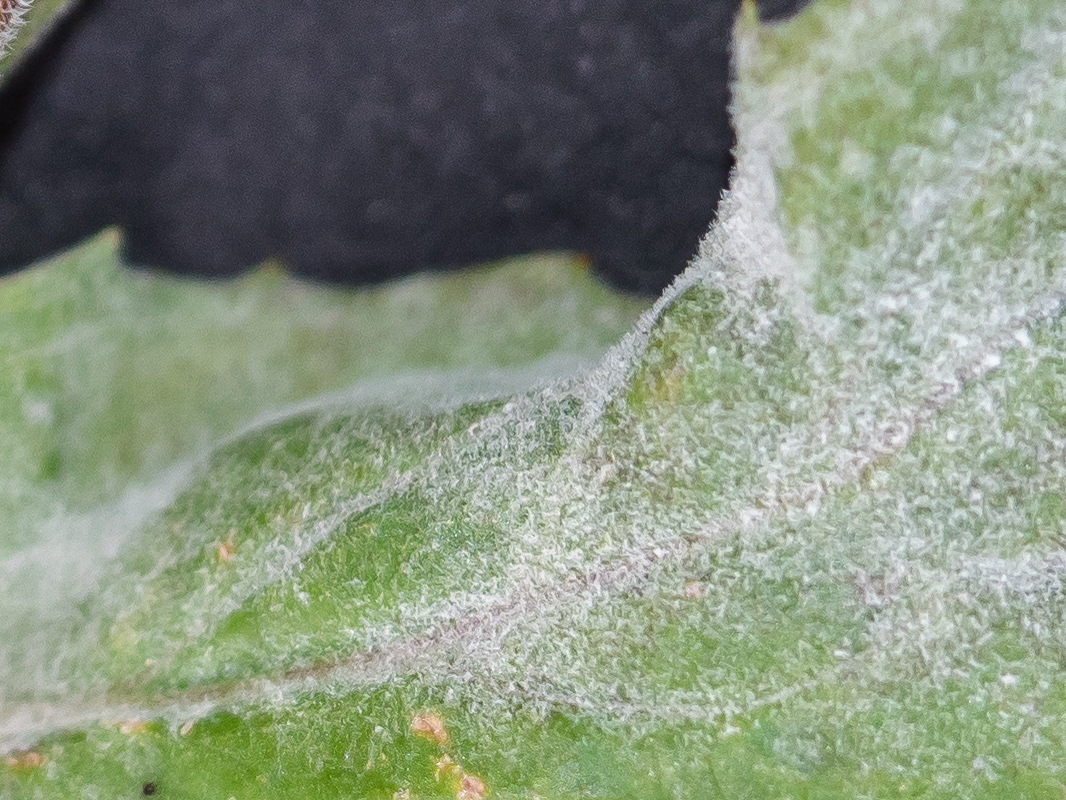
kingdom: Fungi
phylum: Ascomycota
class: Leotiomycetes
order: Helotiales
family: Erysiphaceae
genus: Podosphaera
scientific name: Podosphaera epilobii
